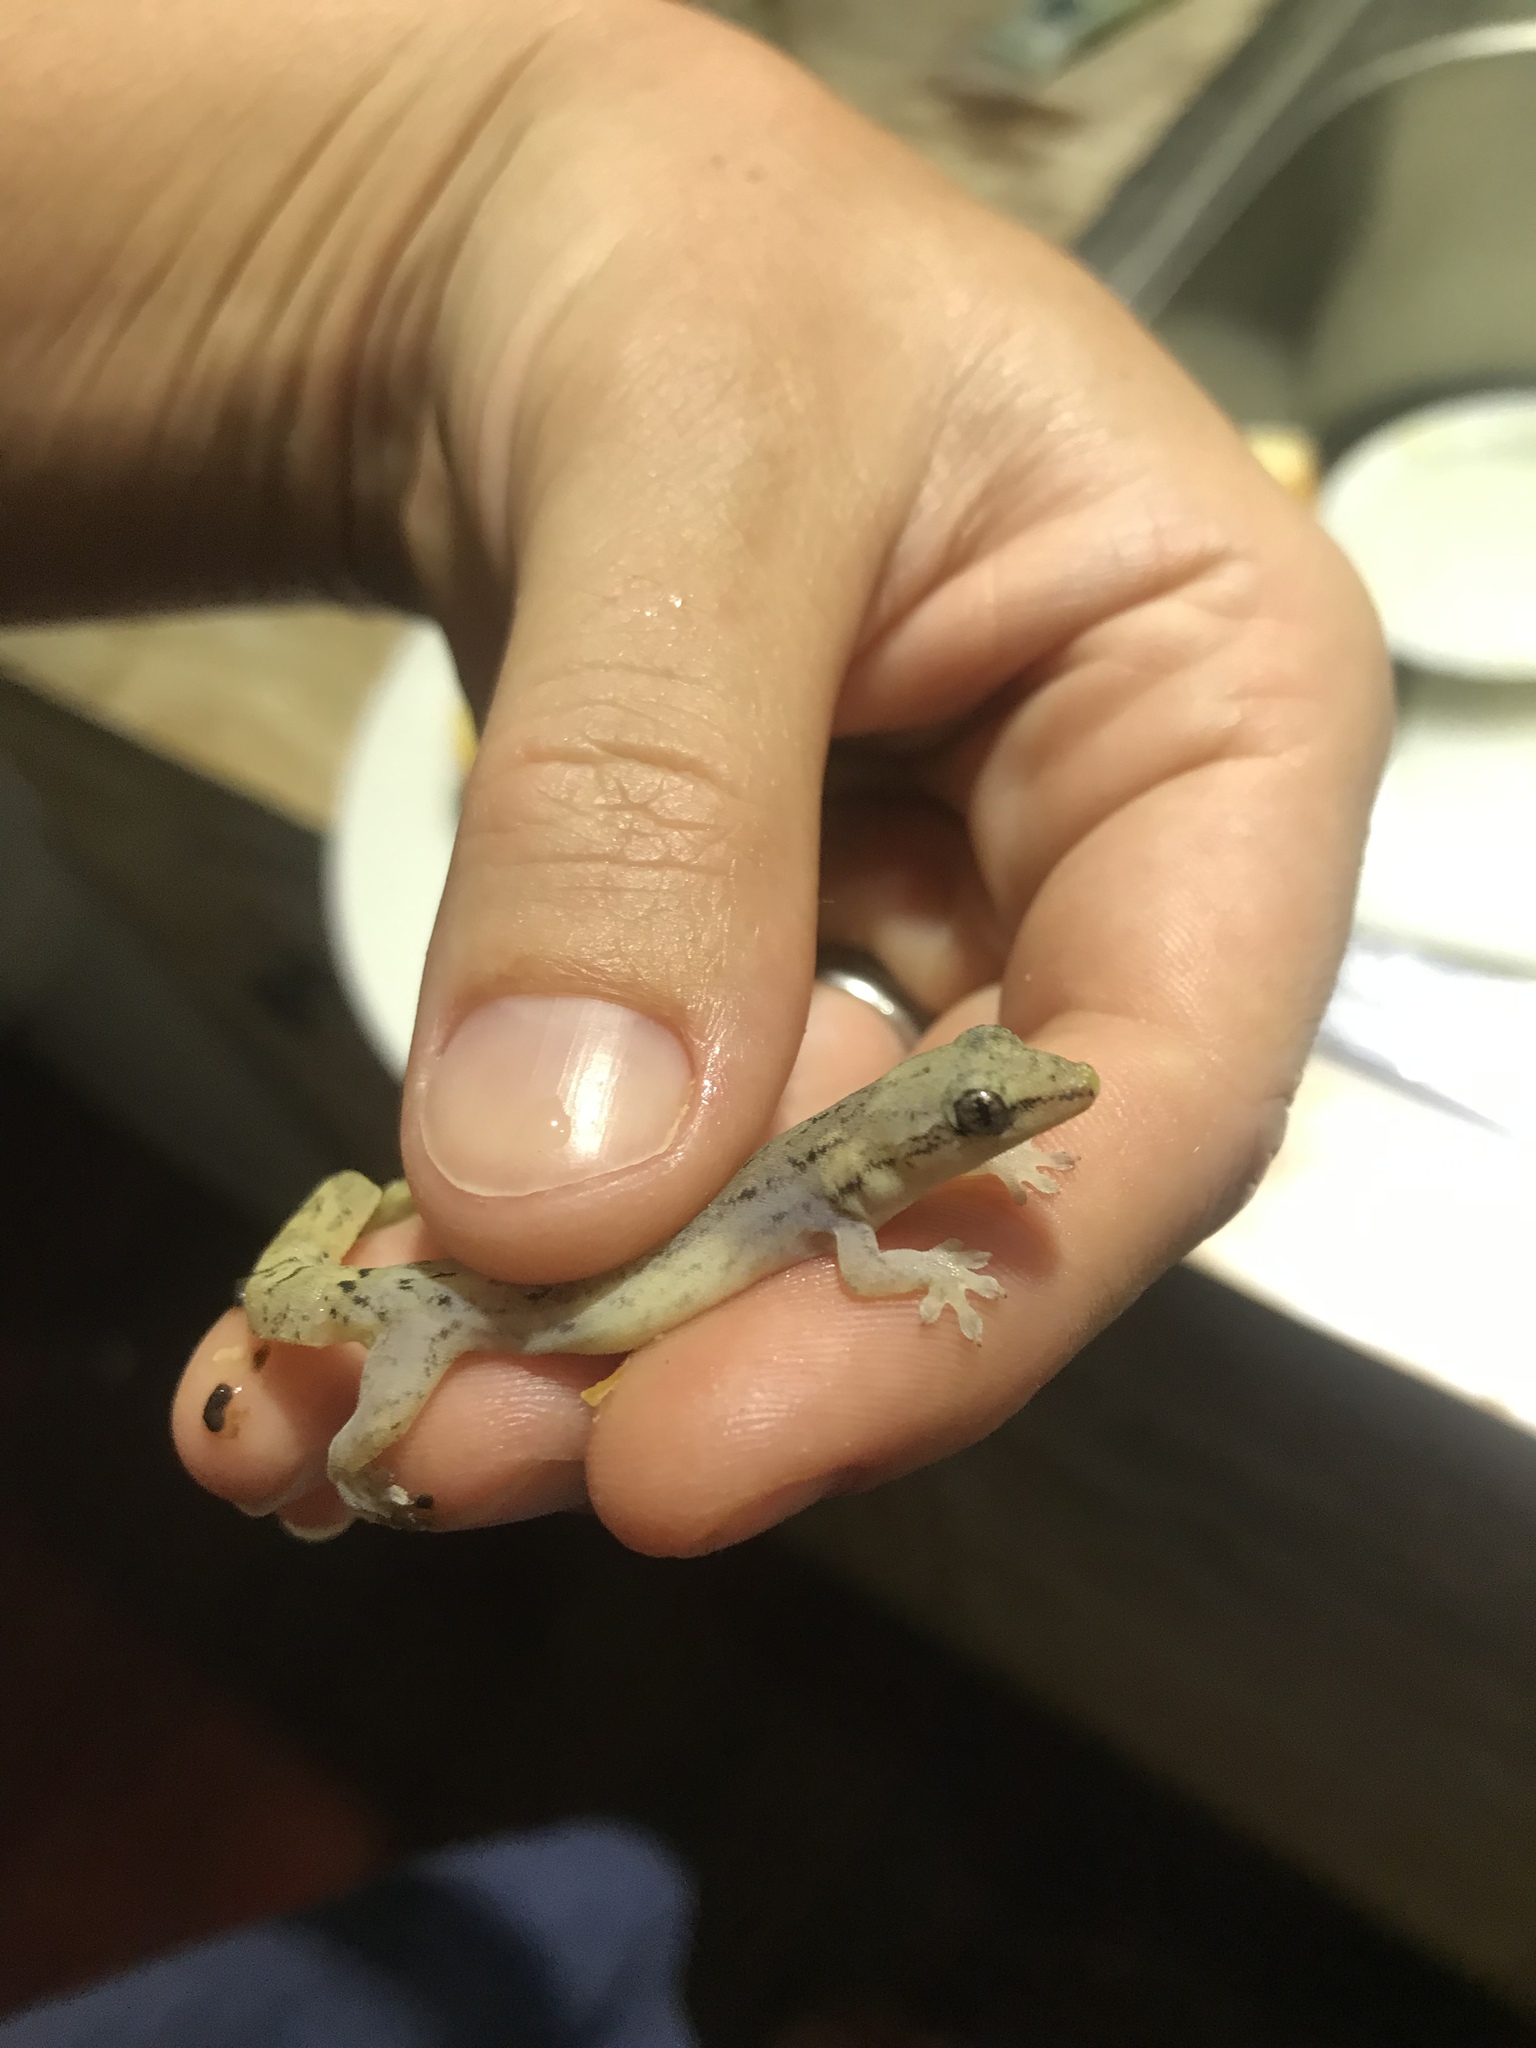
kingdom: Animalia
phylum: Chordata
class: Squamata
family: Gekkonidae
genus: Lepidodactylus
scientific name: Lepidodactylus lugubris
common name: Mourning gecko
